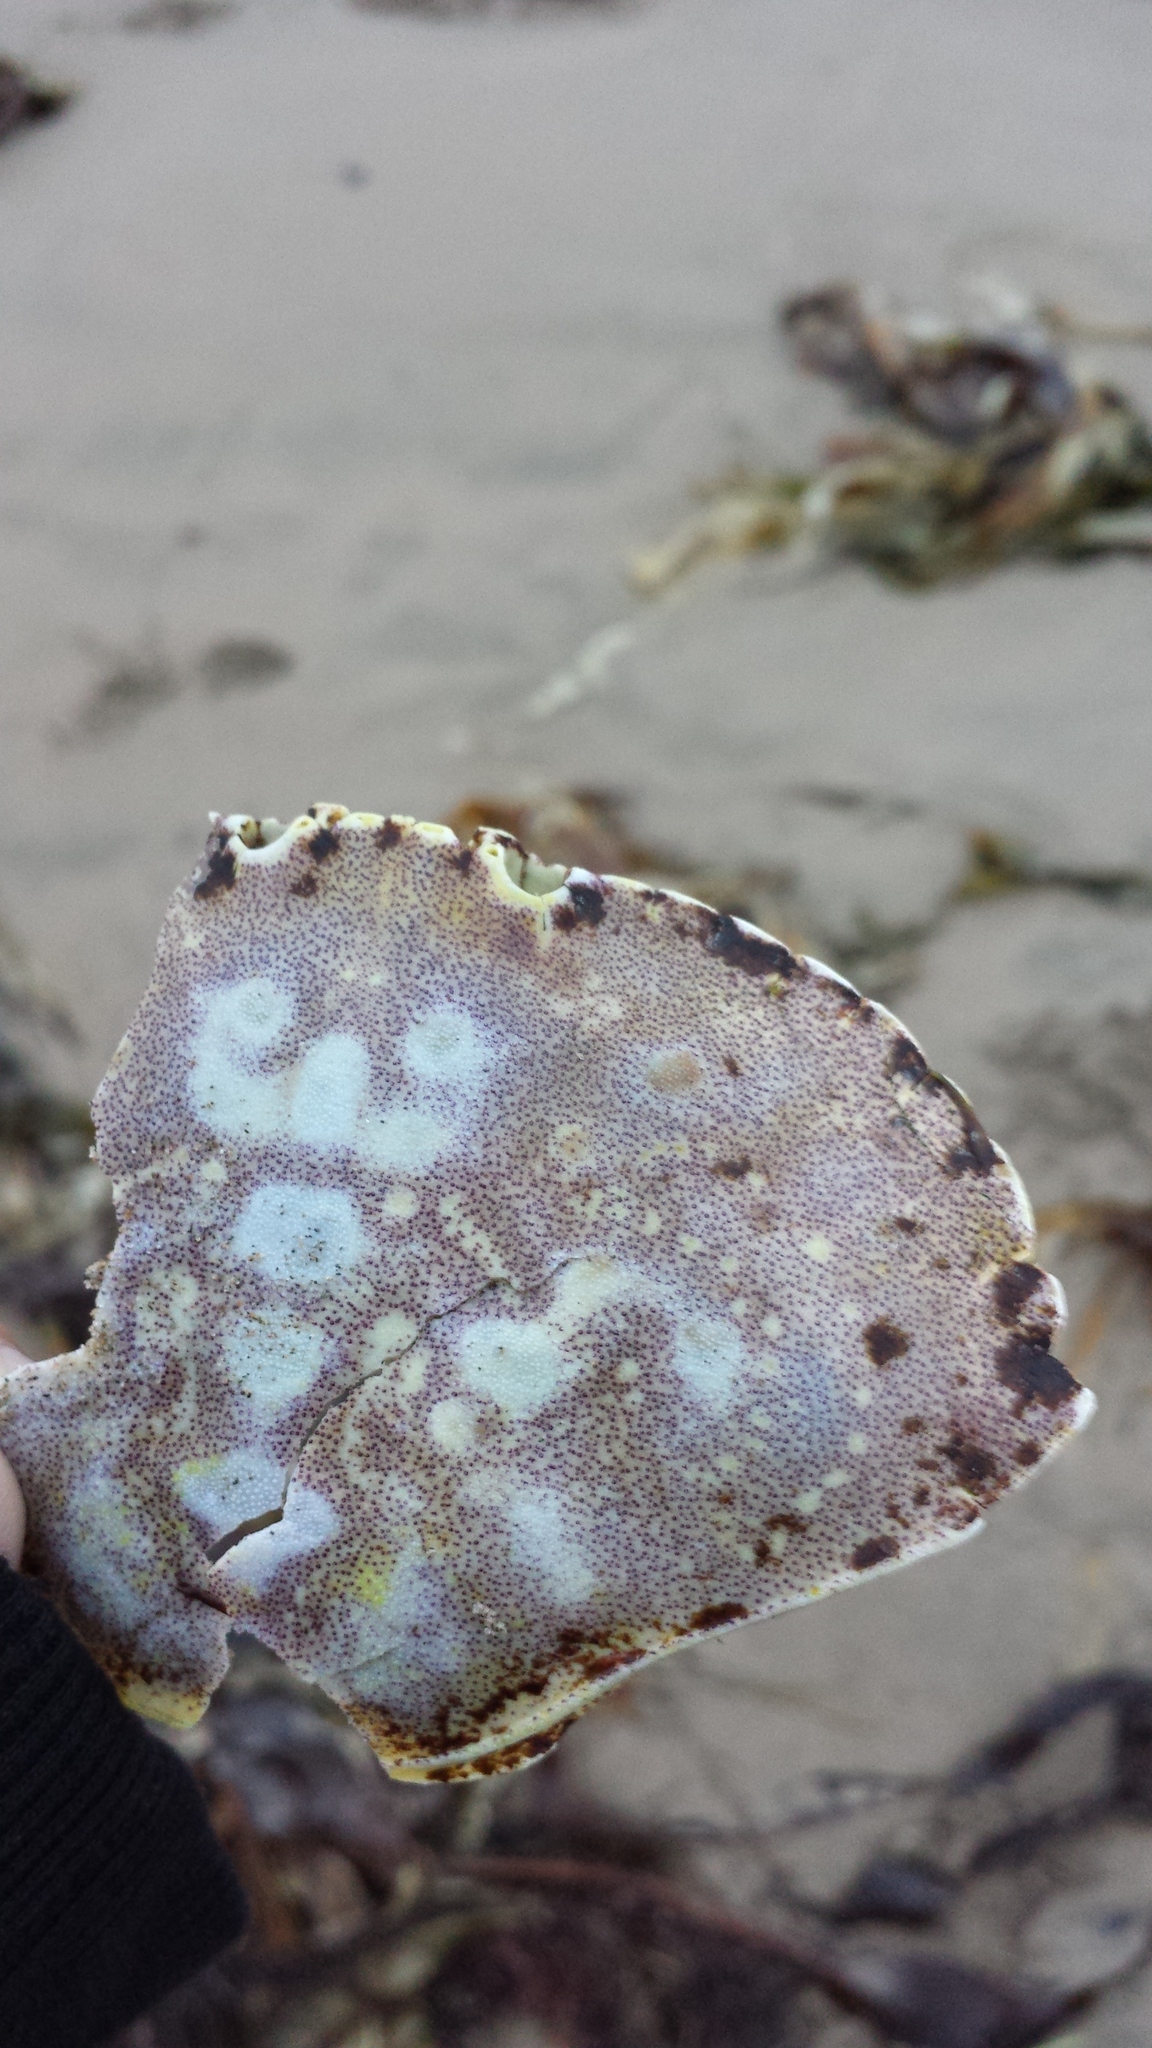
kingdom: Animalia
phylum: Arthropoda
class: Malacostraca
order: Decapoda
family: Cancridae
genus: Cancer
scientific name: Cancer irroratus
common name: Atlantic rock crab
